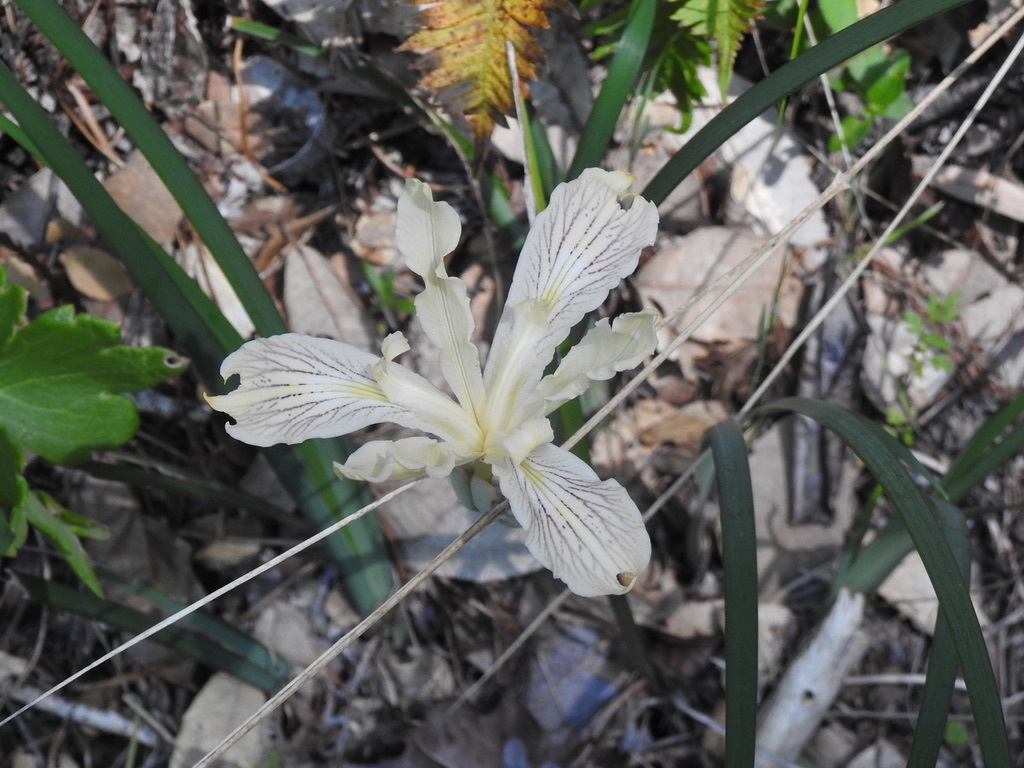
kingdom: Plantae
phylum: Tracheophyta
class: Liliopsida
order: Asparagales
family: Iridaceae
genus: Iris
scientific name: Iris purdyi
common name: Purdy's iris
